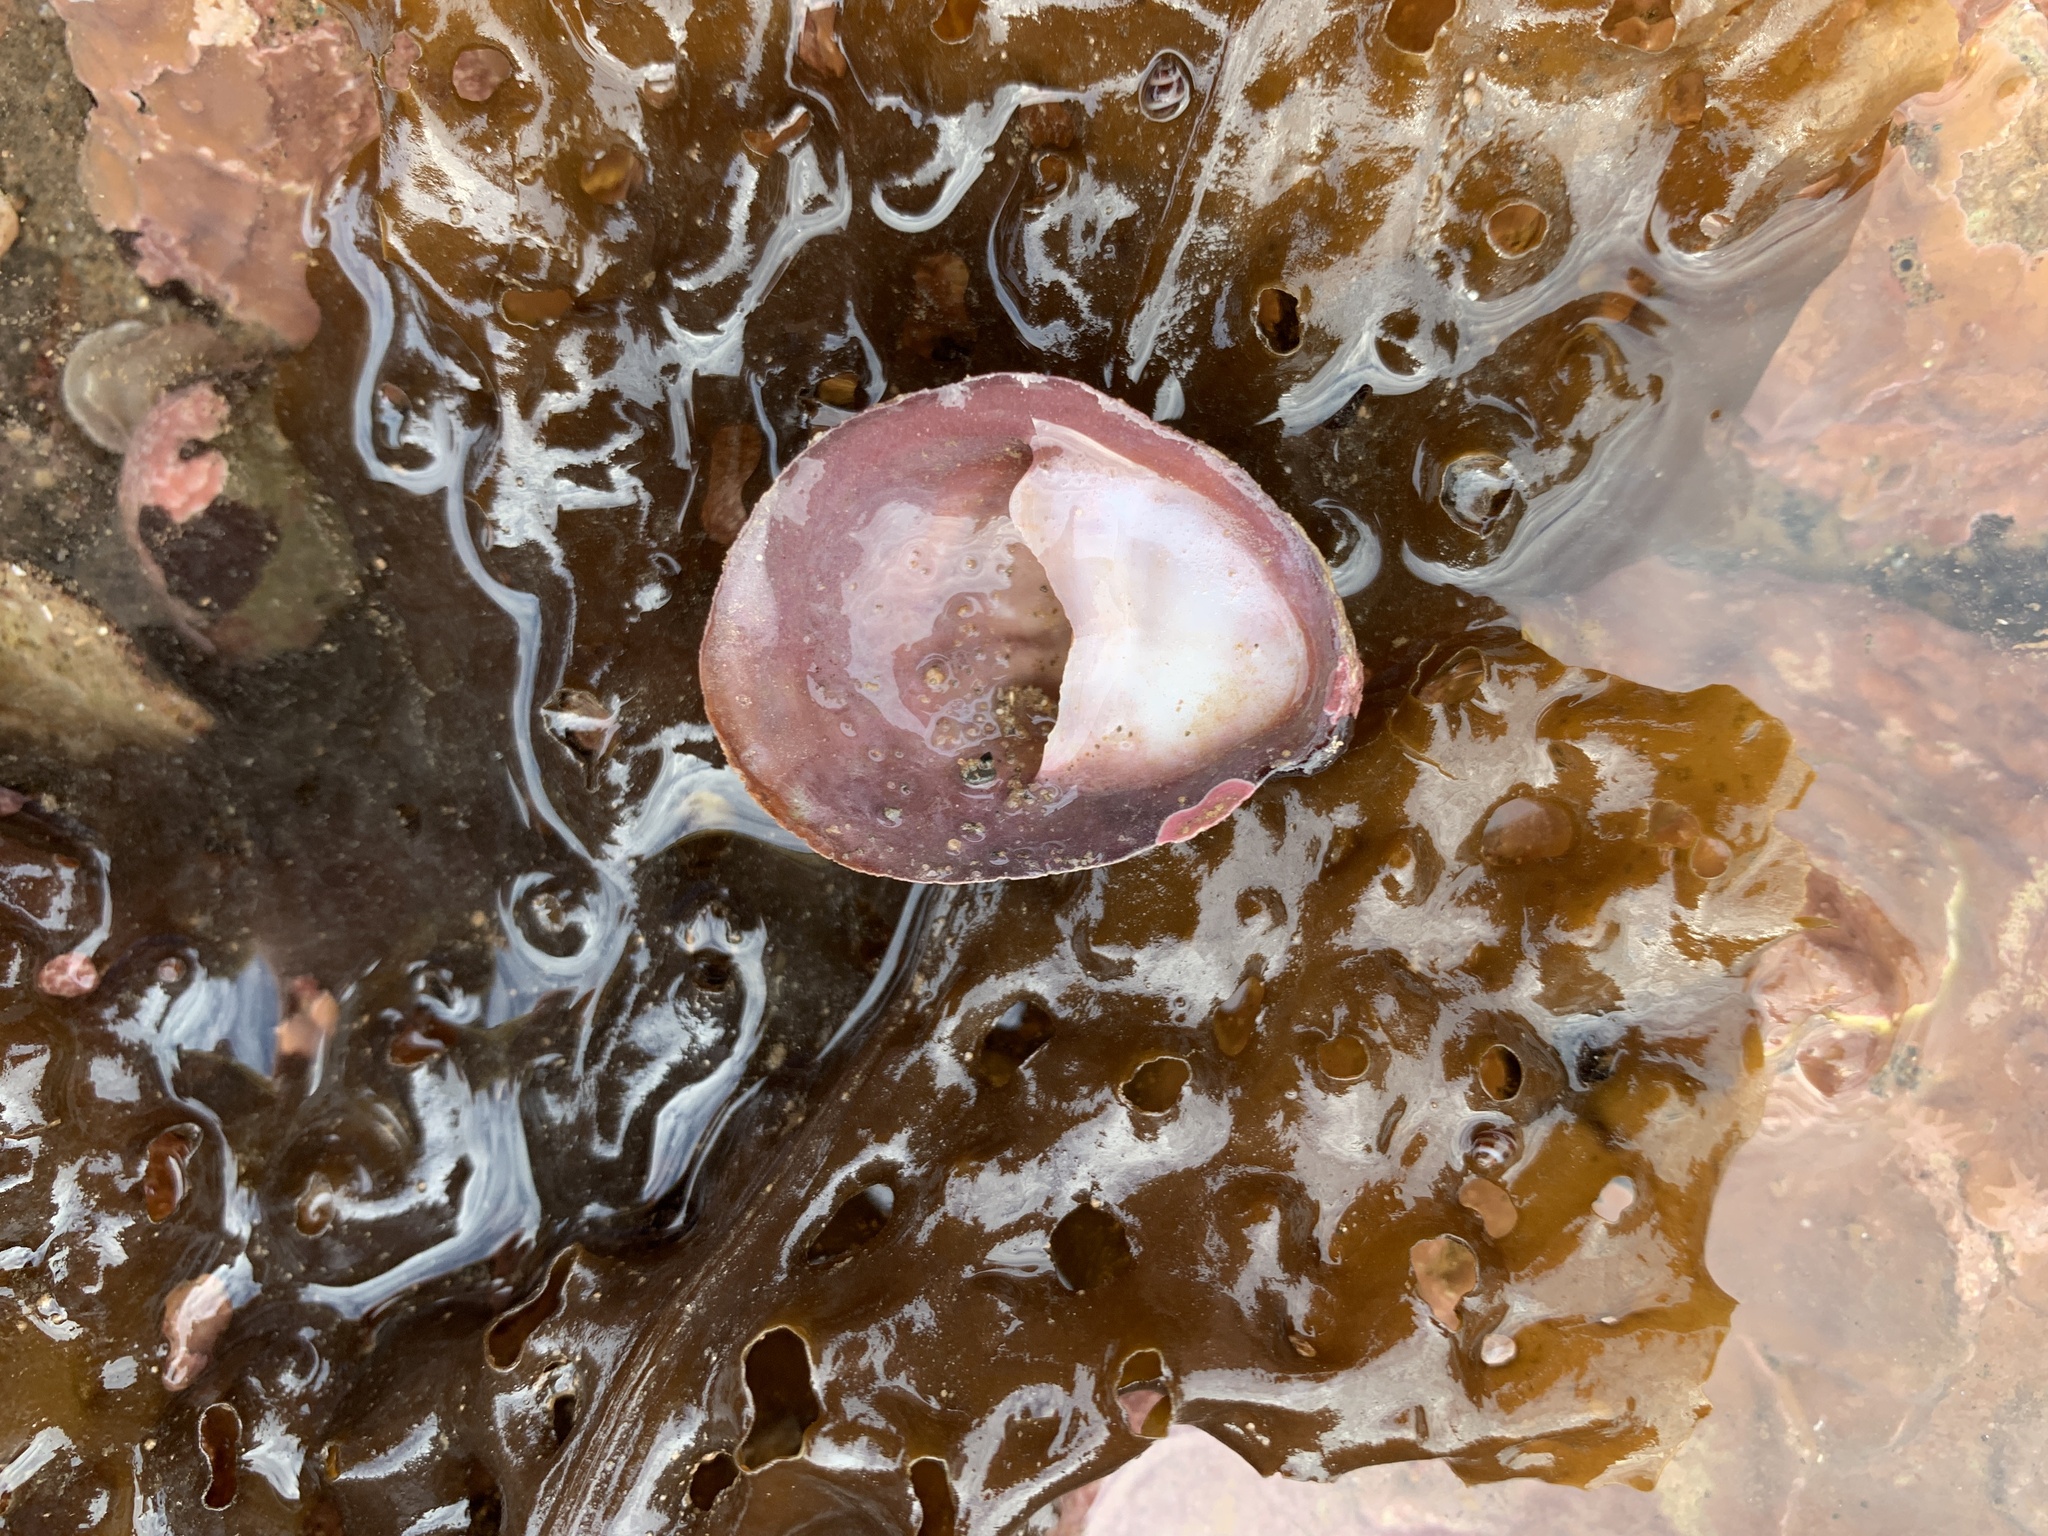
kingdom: Animalia
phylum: Mollusca
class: Gastropoda
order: Littorinimorpha
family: Calyptraeidae
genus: Crepidula
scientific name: Crepidula fornicata
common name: Slipper limpet
